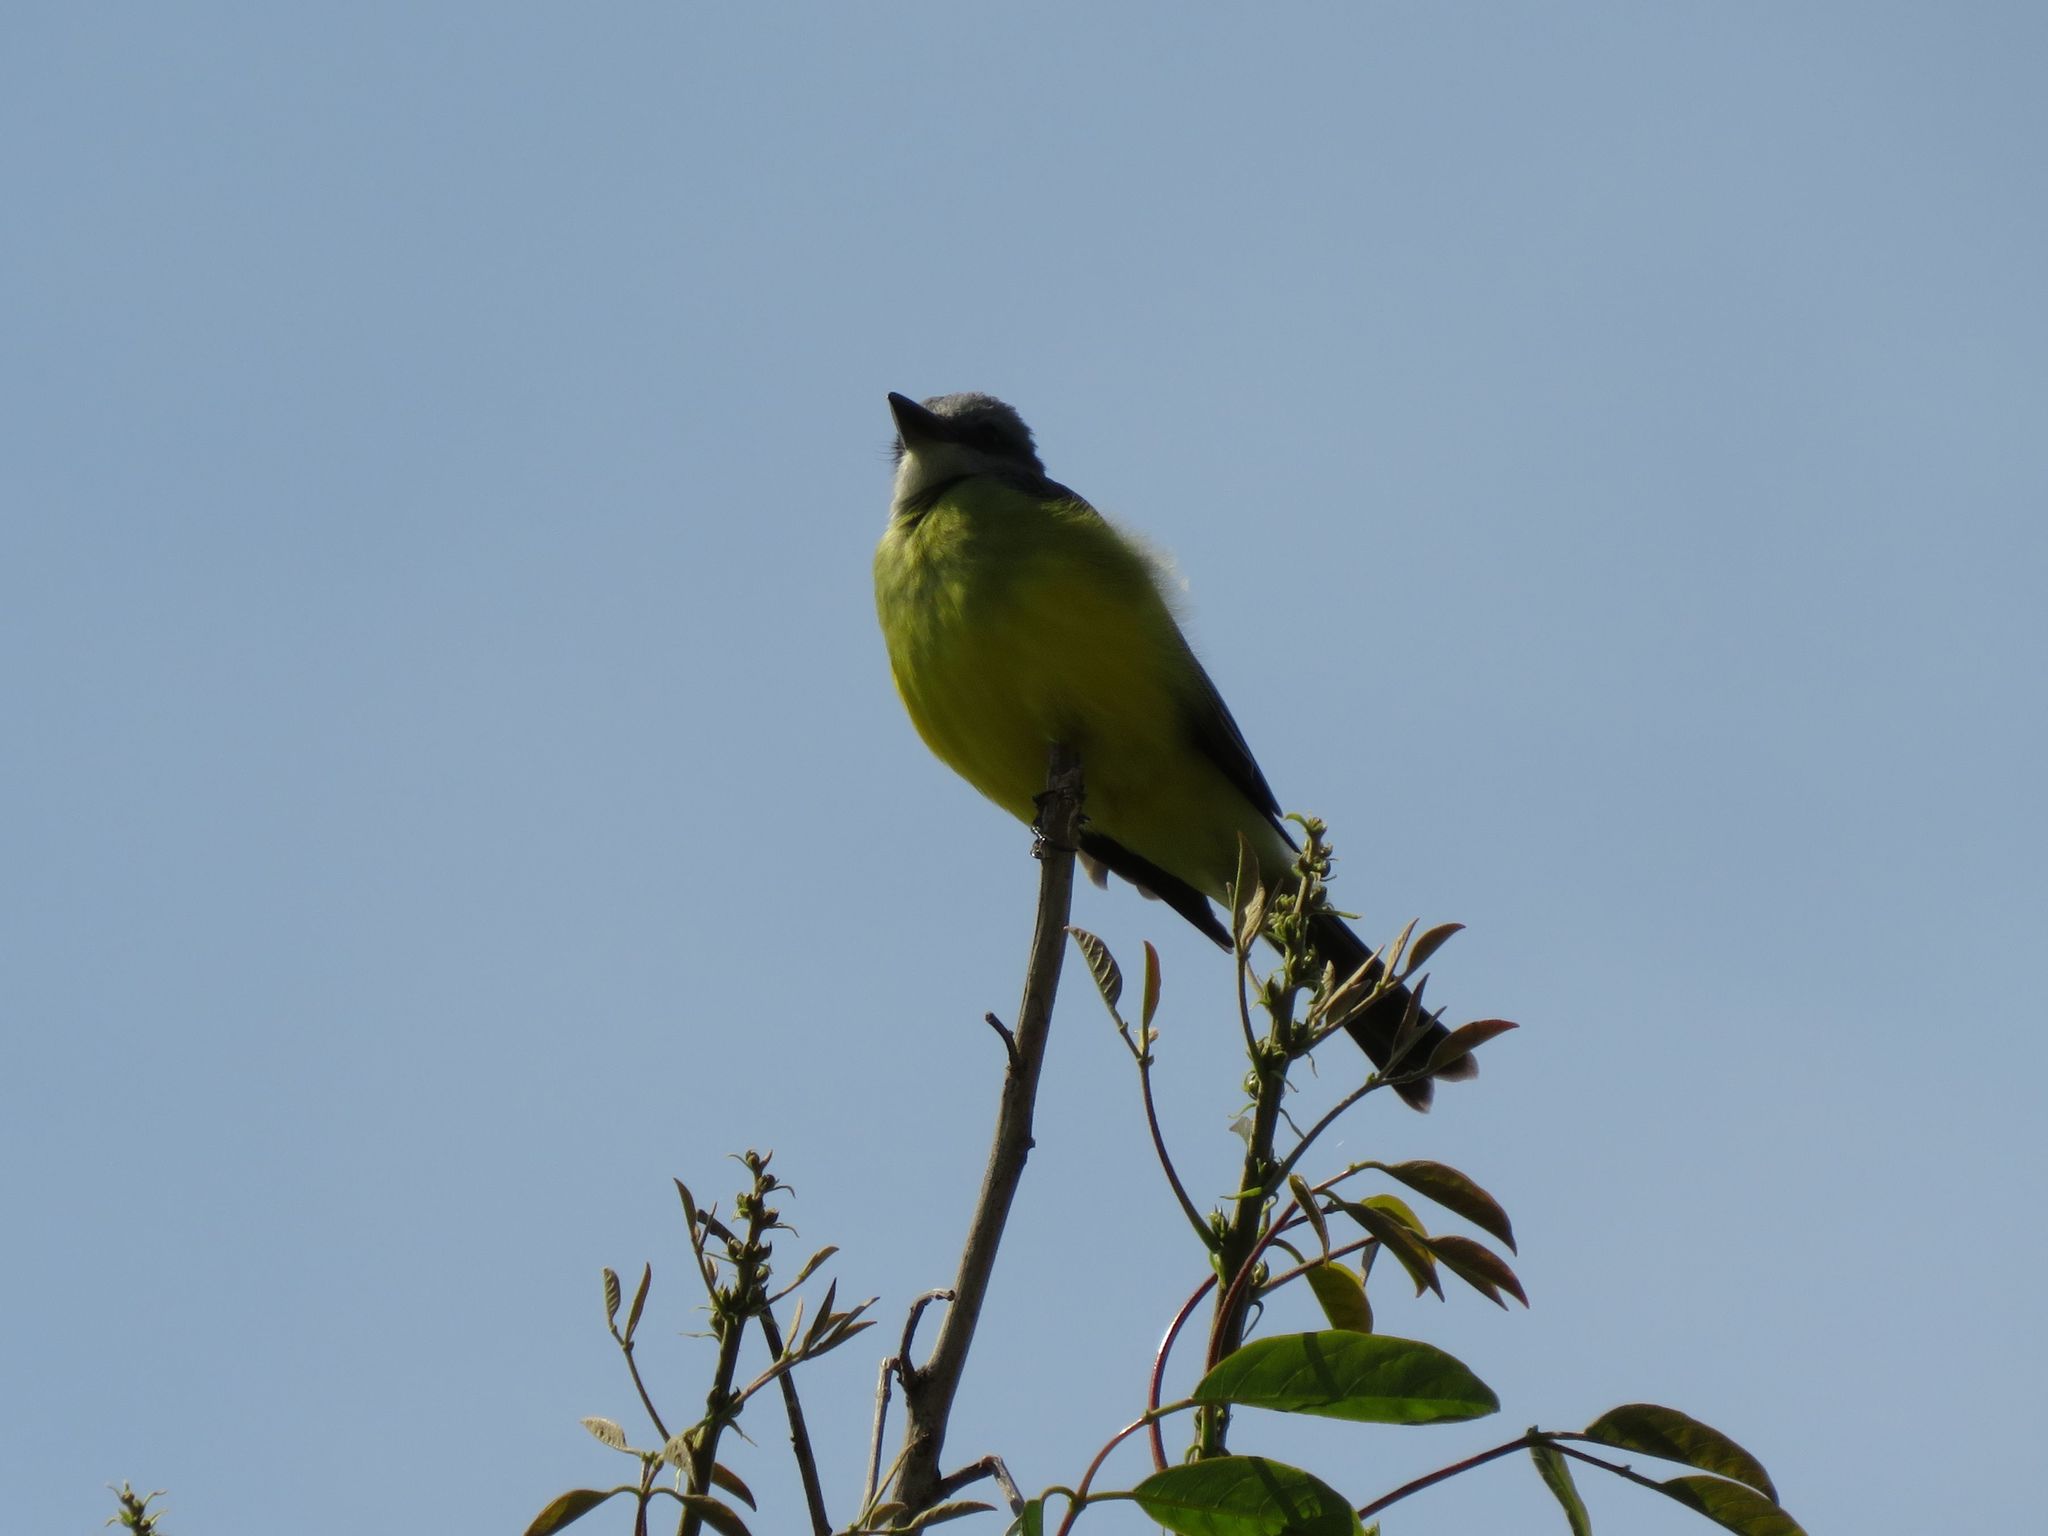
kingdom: Animalia
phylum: Chordata
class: Aves
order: Passeriformes
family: Tyrannidae
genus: Tyrannus
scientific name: Tyrannus melancholicus
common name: Tropical kingbird
